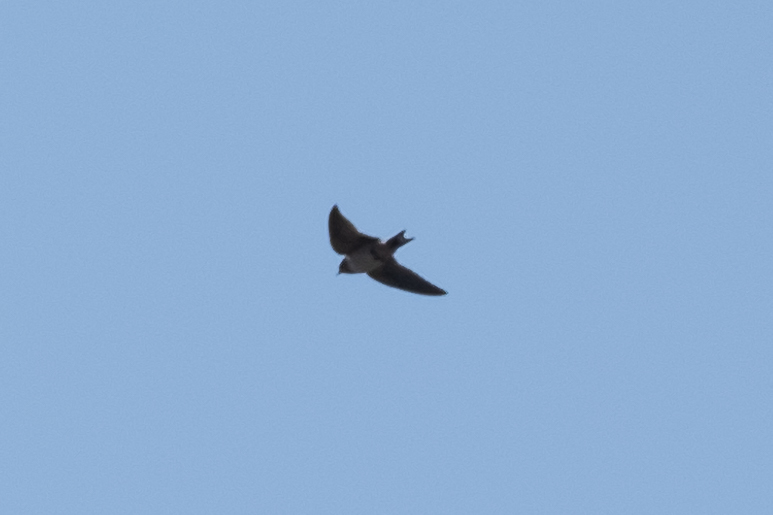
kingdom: Animalia
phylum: Chordata
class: Aves
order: Passeriformes
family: Hirundinidae
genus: Hirundo
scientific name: Hirundo rustica
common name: Barn swallow
